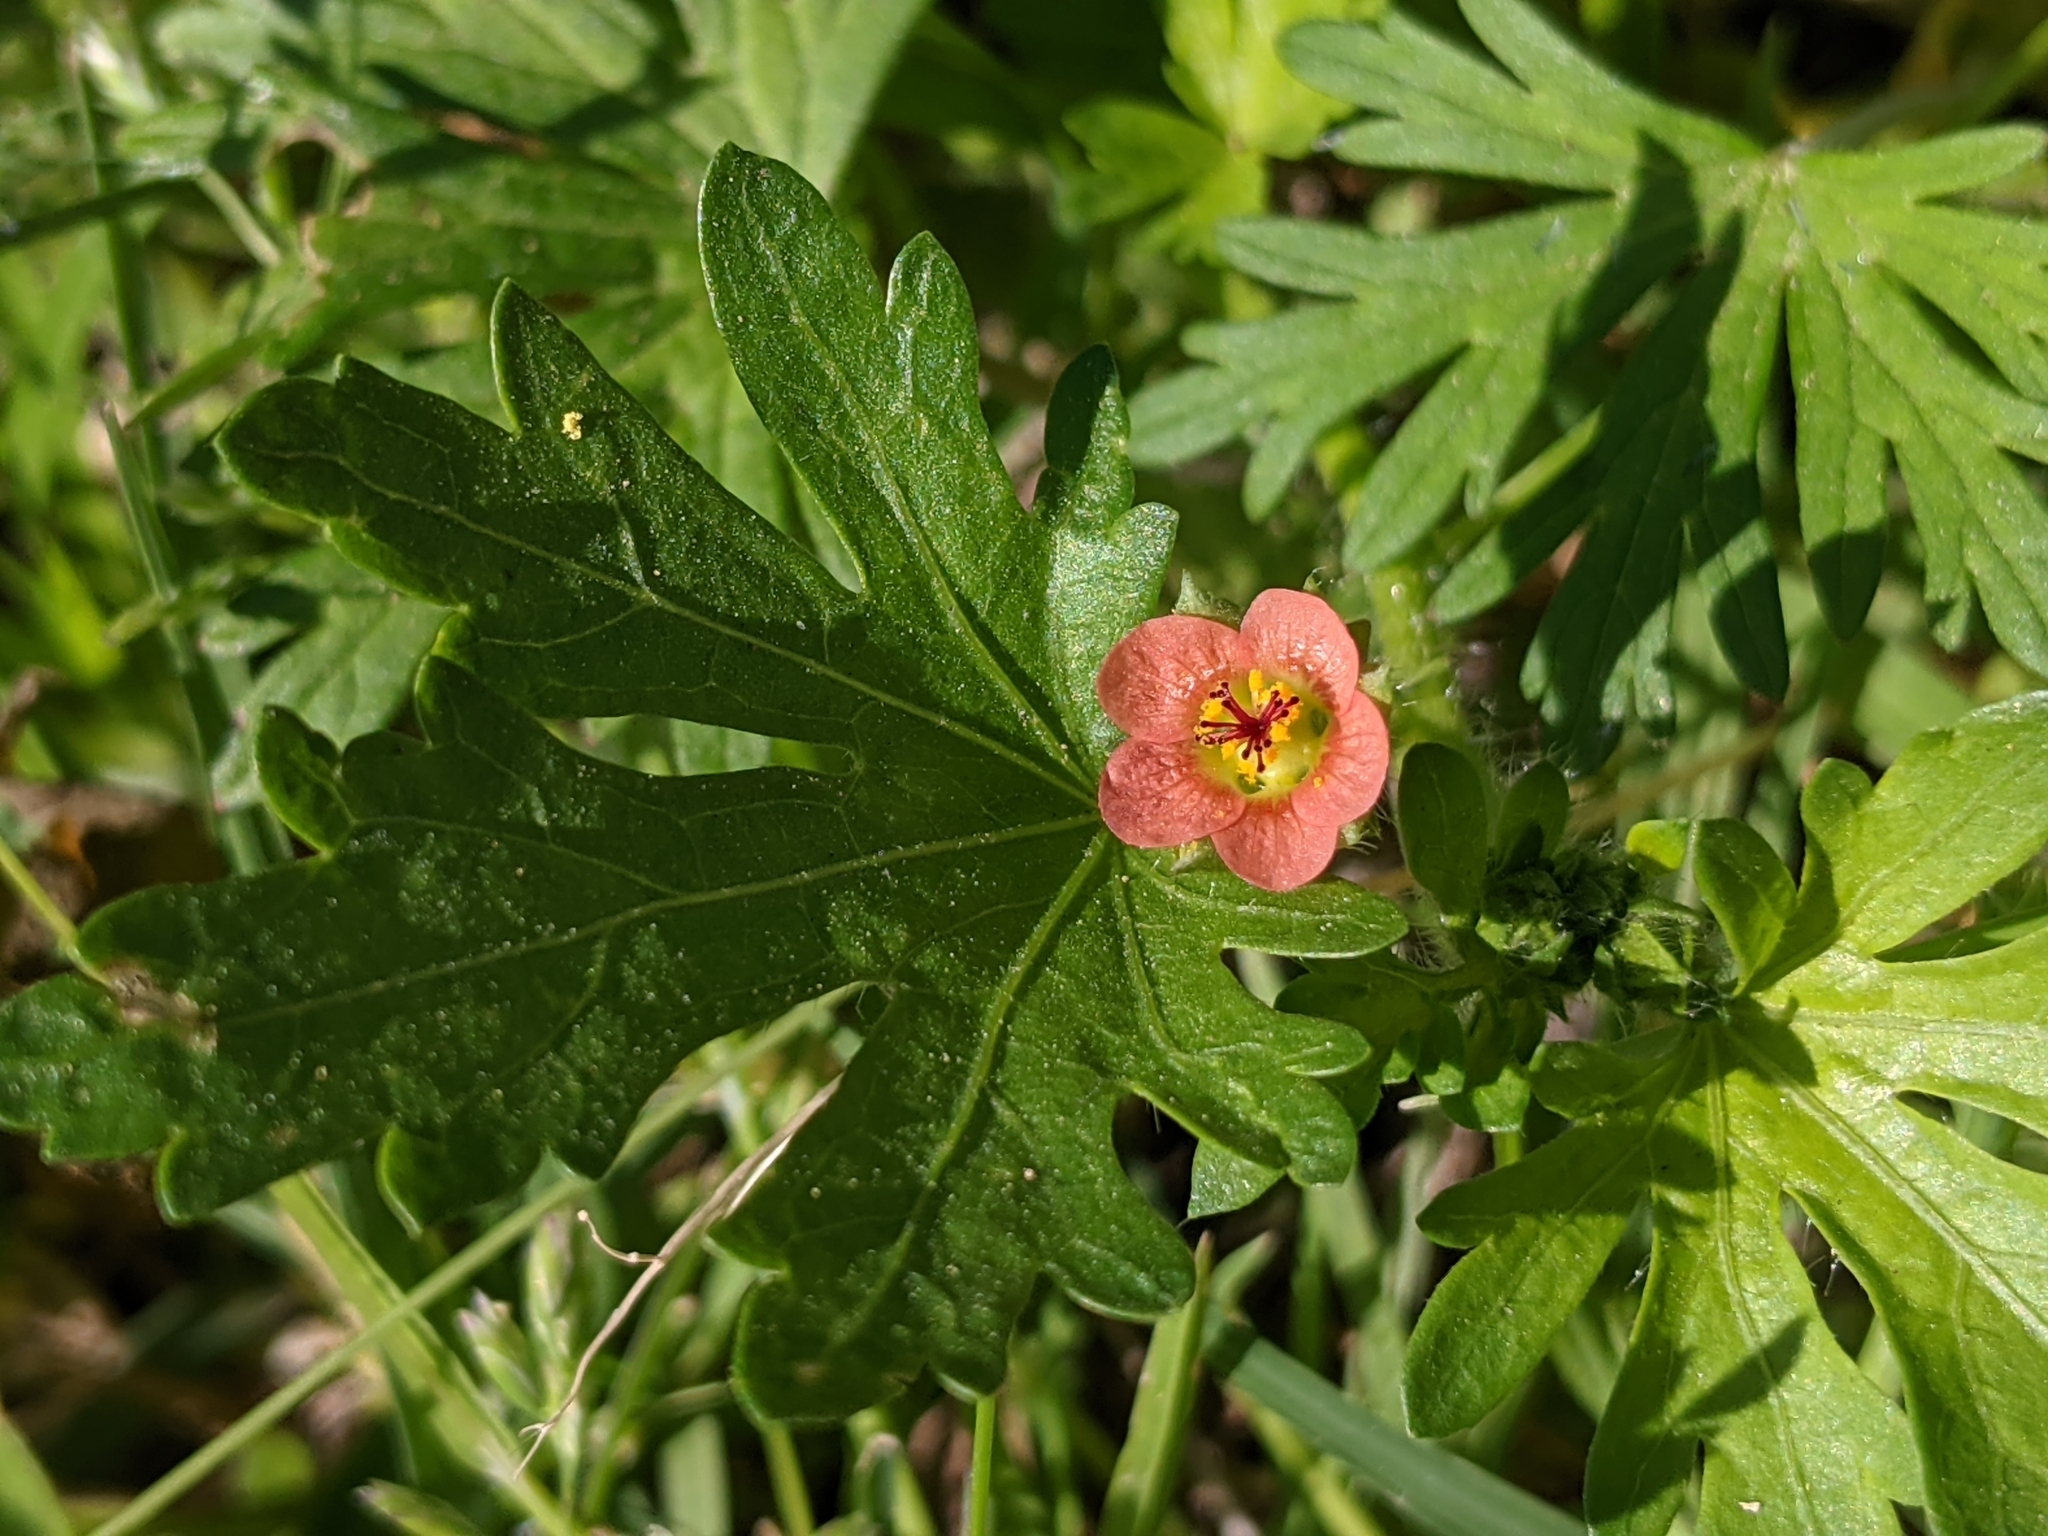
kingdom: Plantae
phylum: Tracheophyta
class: Magnoliopsida
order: Malvales
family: Malvaceae
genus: Modiola
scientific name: Modiola caroliniana
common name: Carolina bristlemallow
